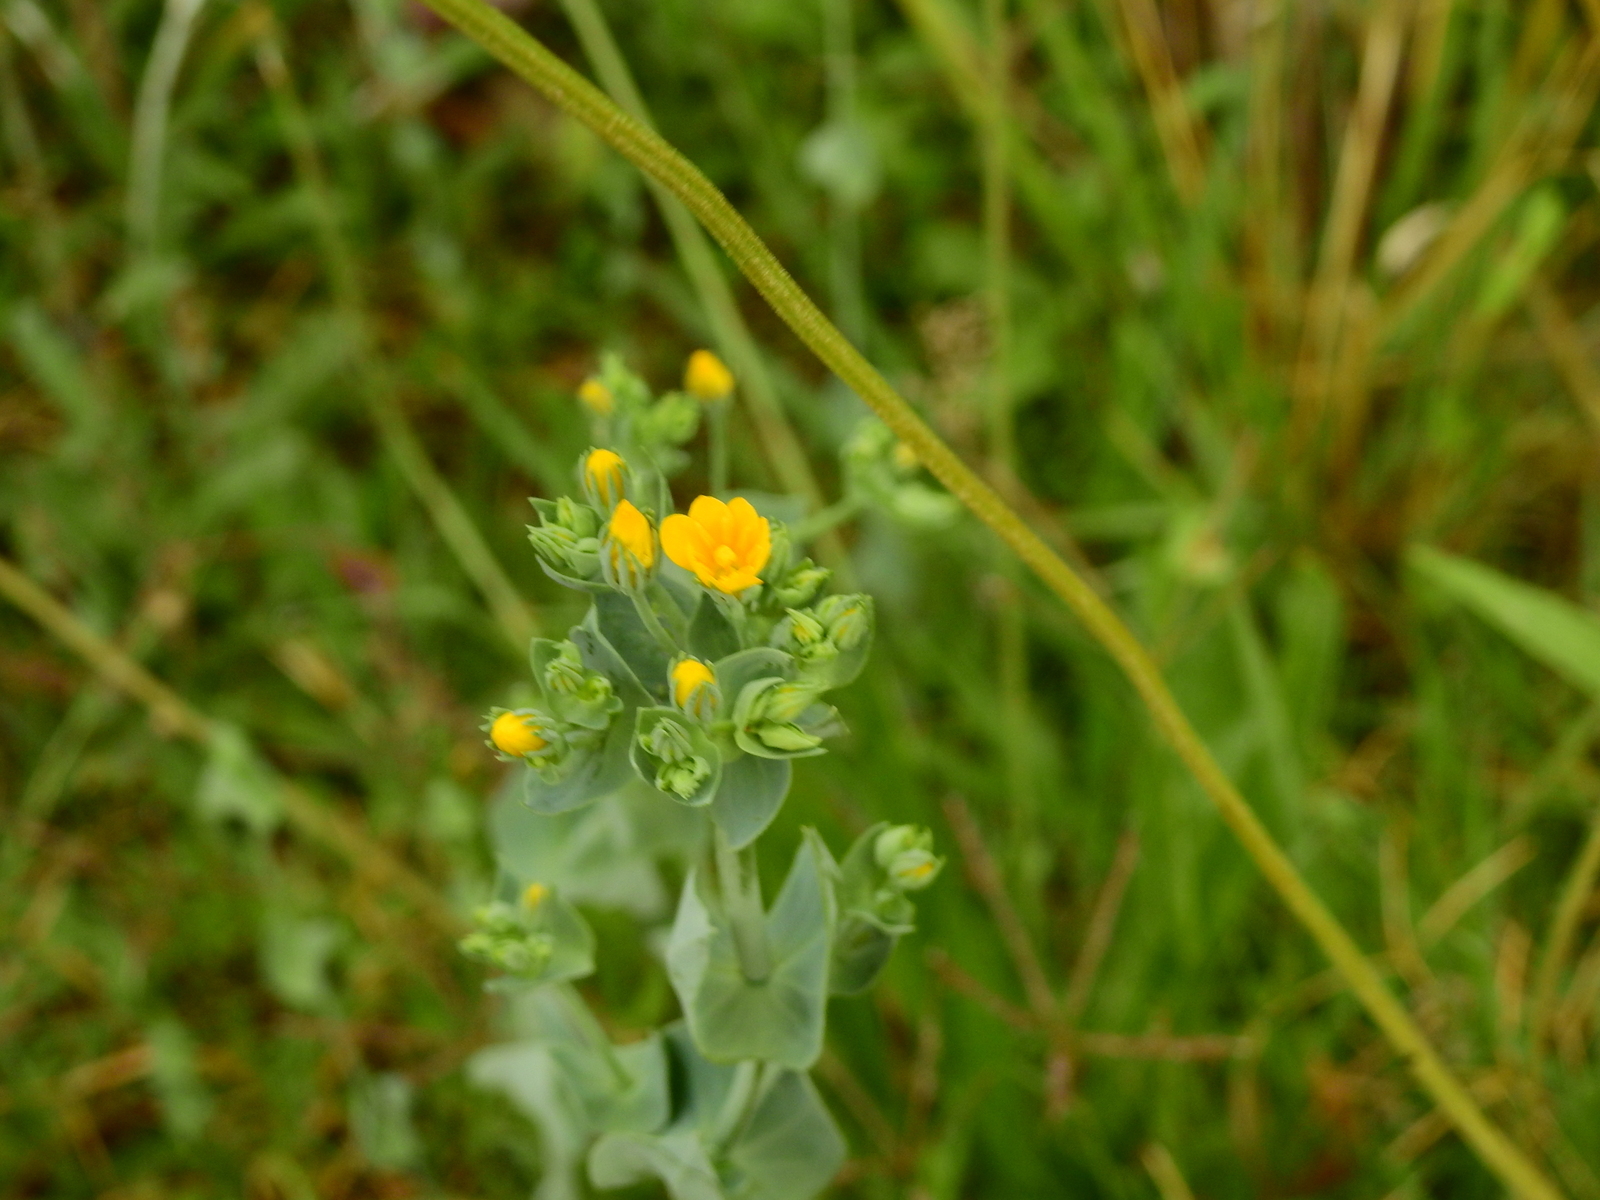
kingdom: Plantae
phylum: Tracheophyta
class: Magnoliopsida
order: Gentianales
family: Gentianaceae
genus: Blackstonia
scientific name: Blackstonia perfoliata
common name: Yellow-wort
